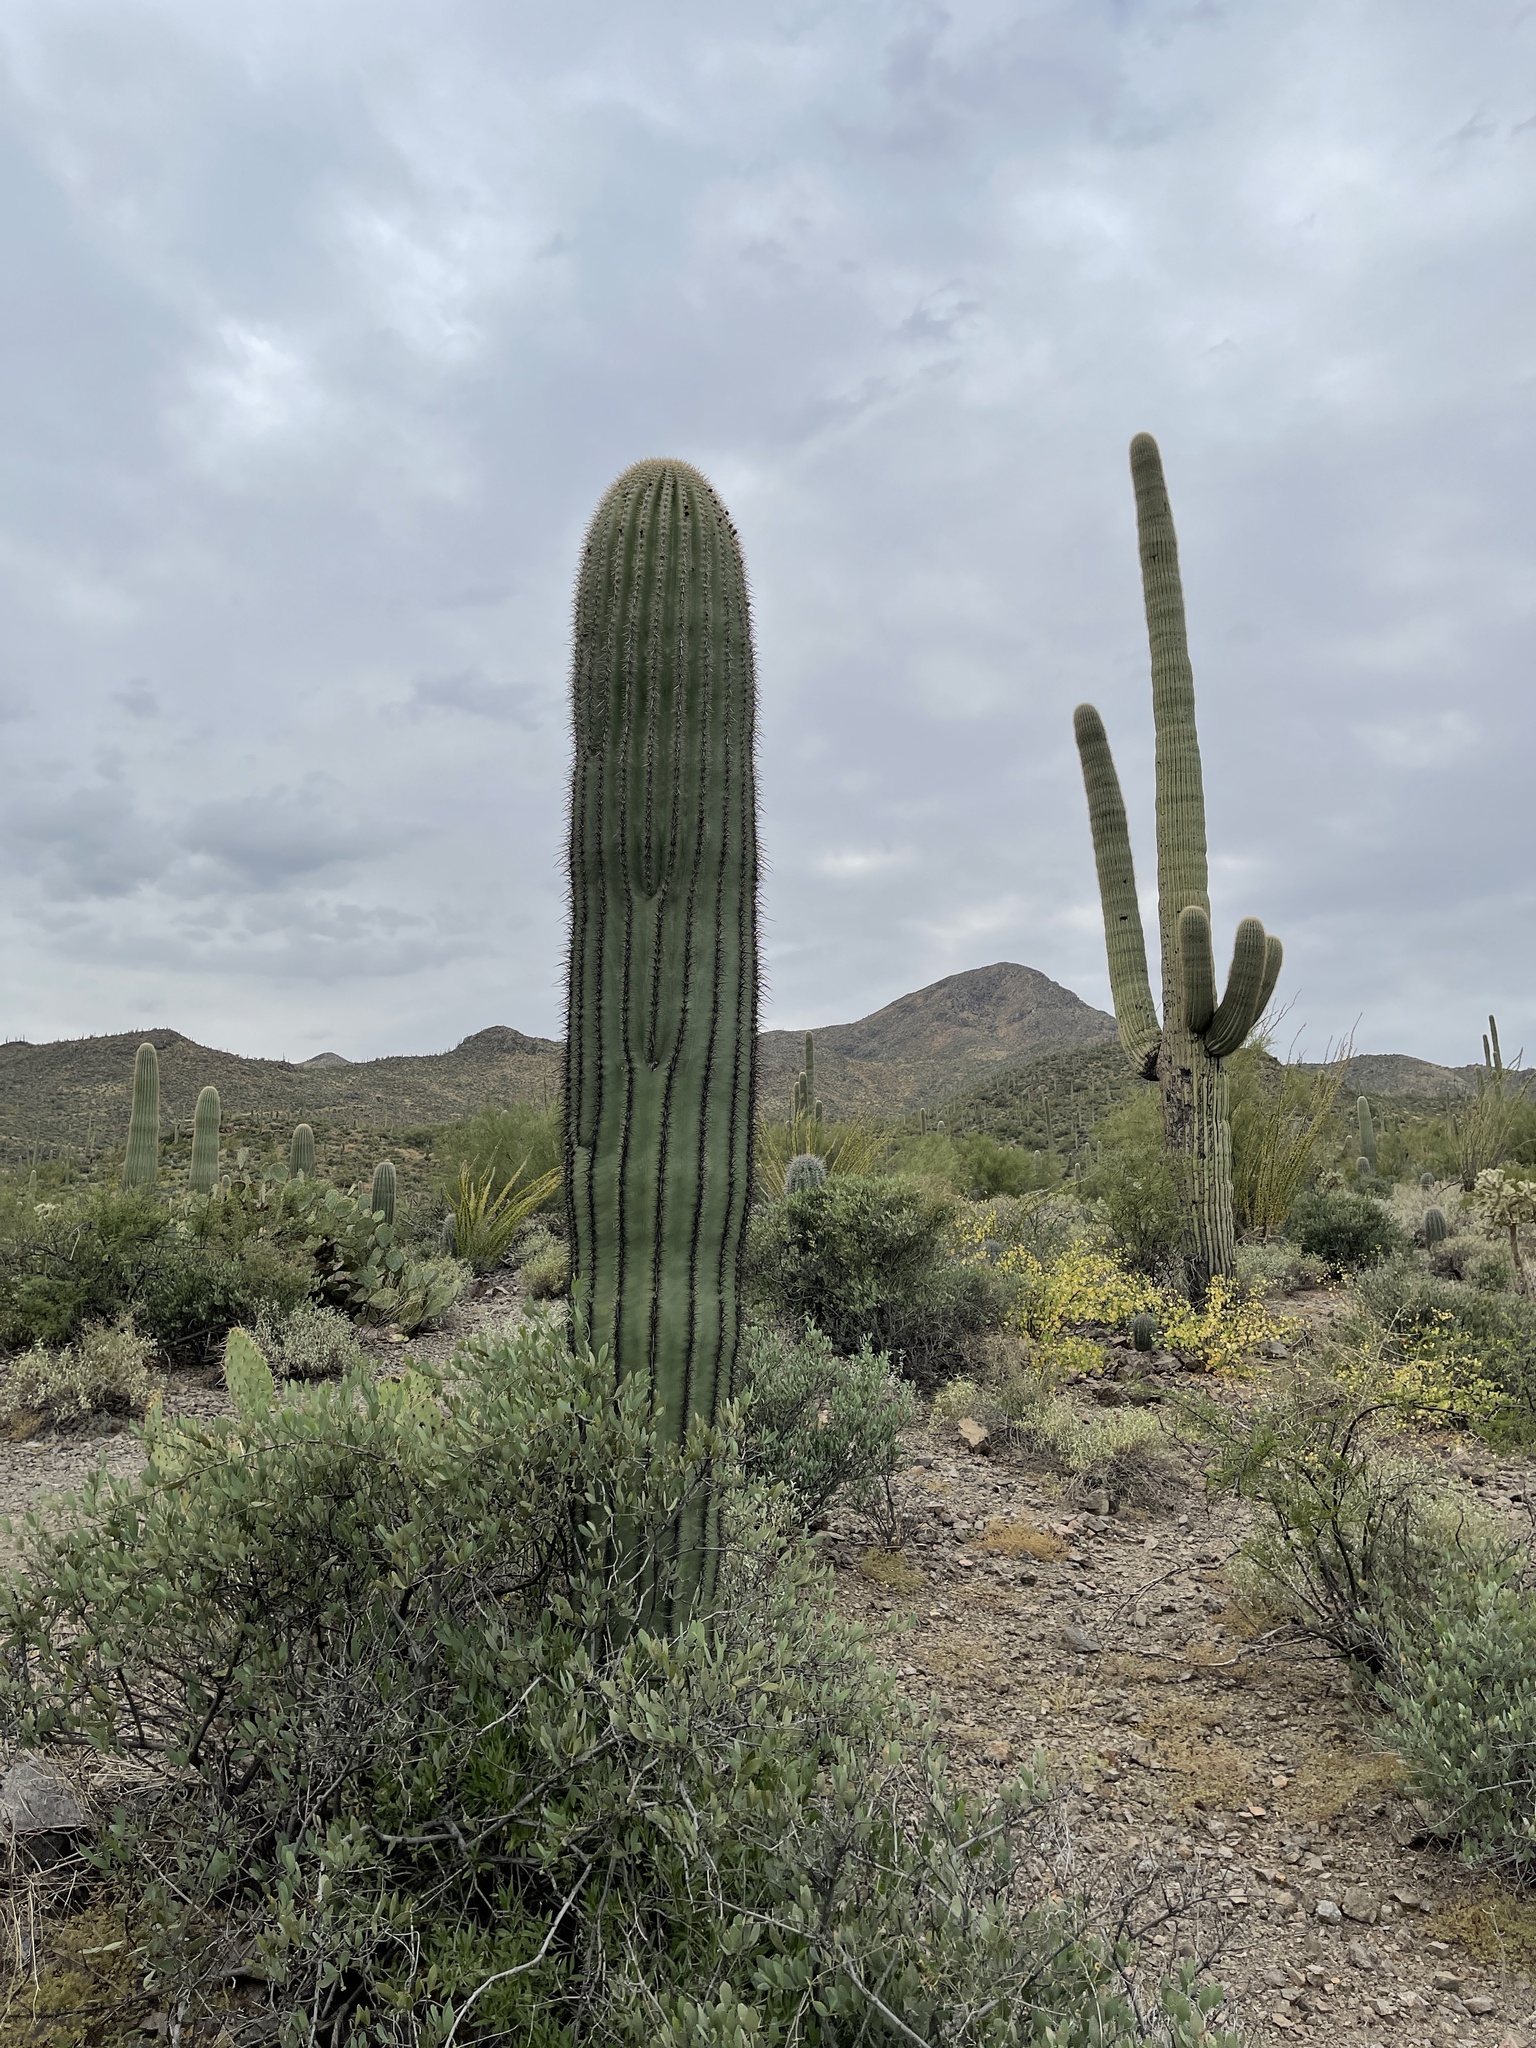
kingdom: Plantae
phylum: Tracheophyta
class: Magnoliopsida
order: Caryophyllales
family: Cactaceae
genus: Carnegiea
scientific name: Carnegiea gigantea
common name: Saguaro
